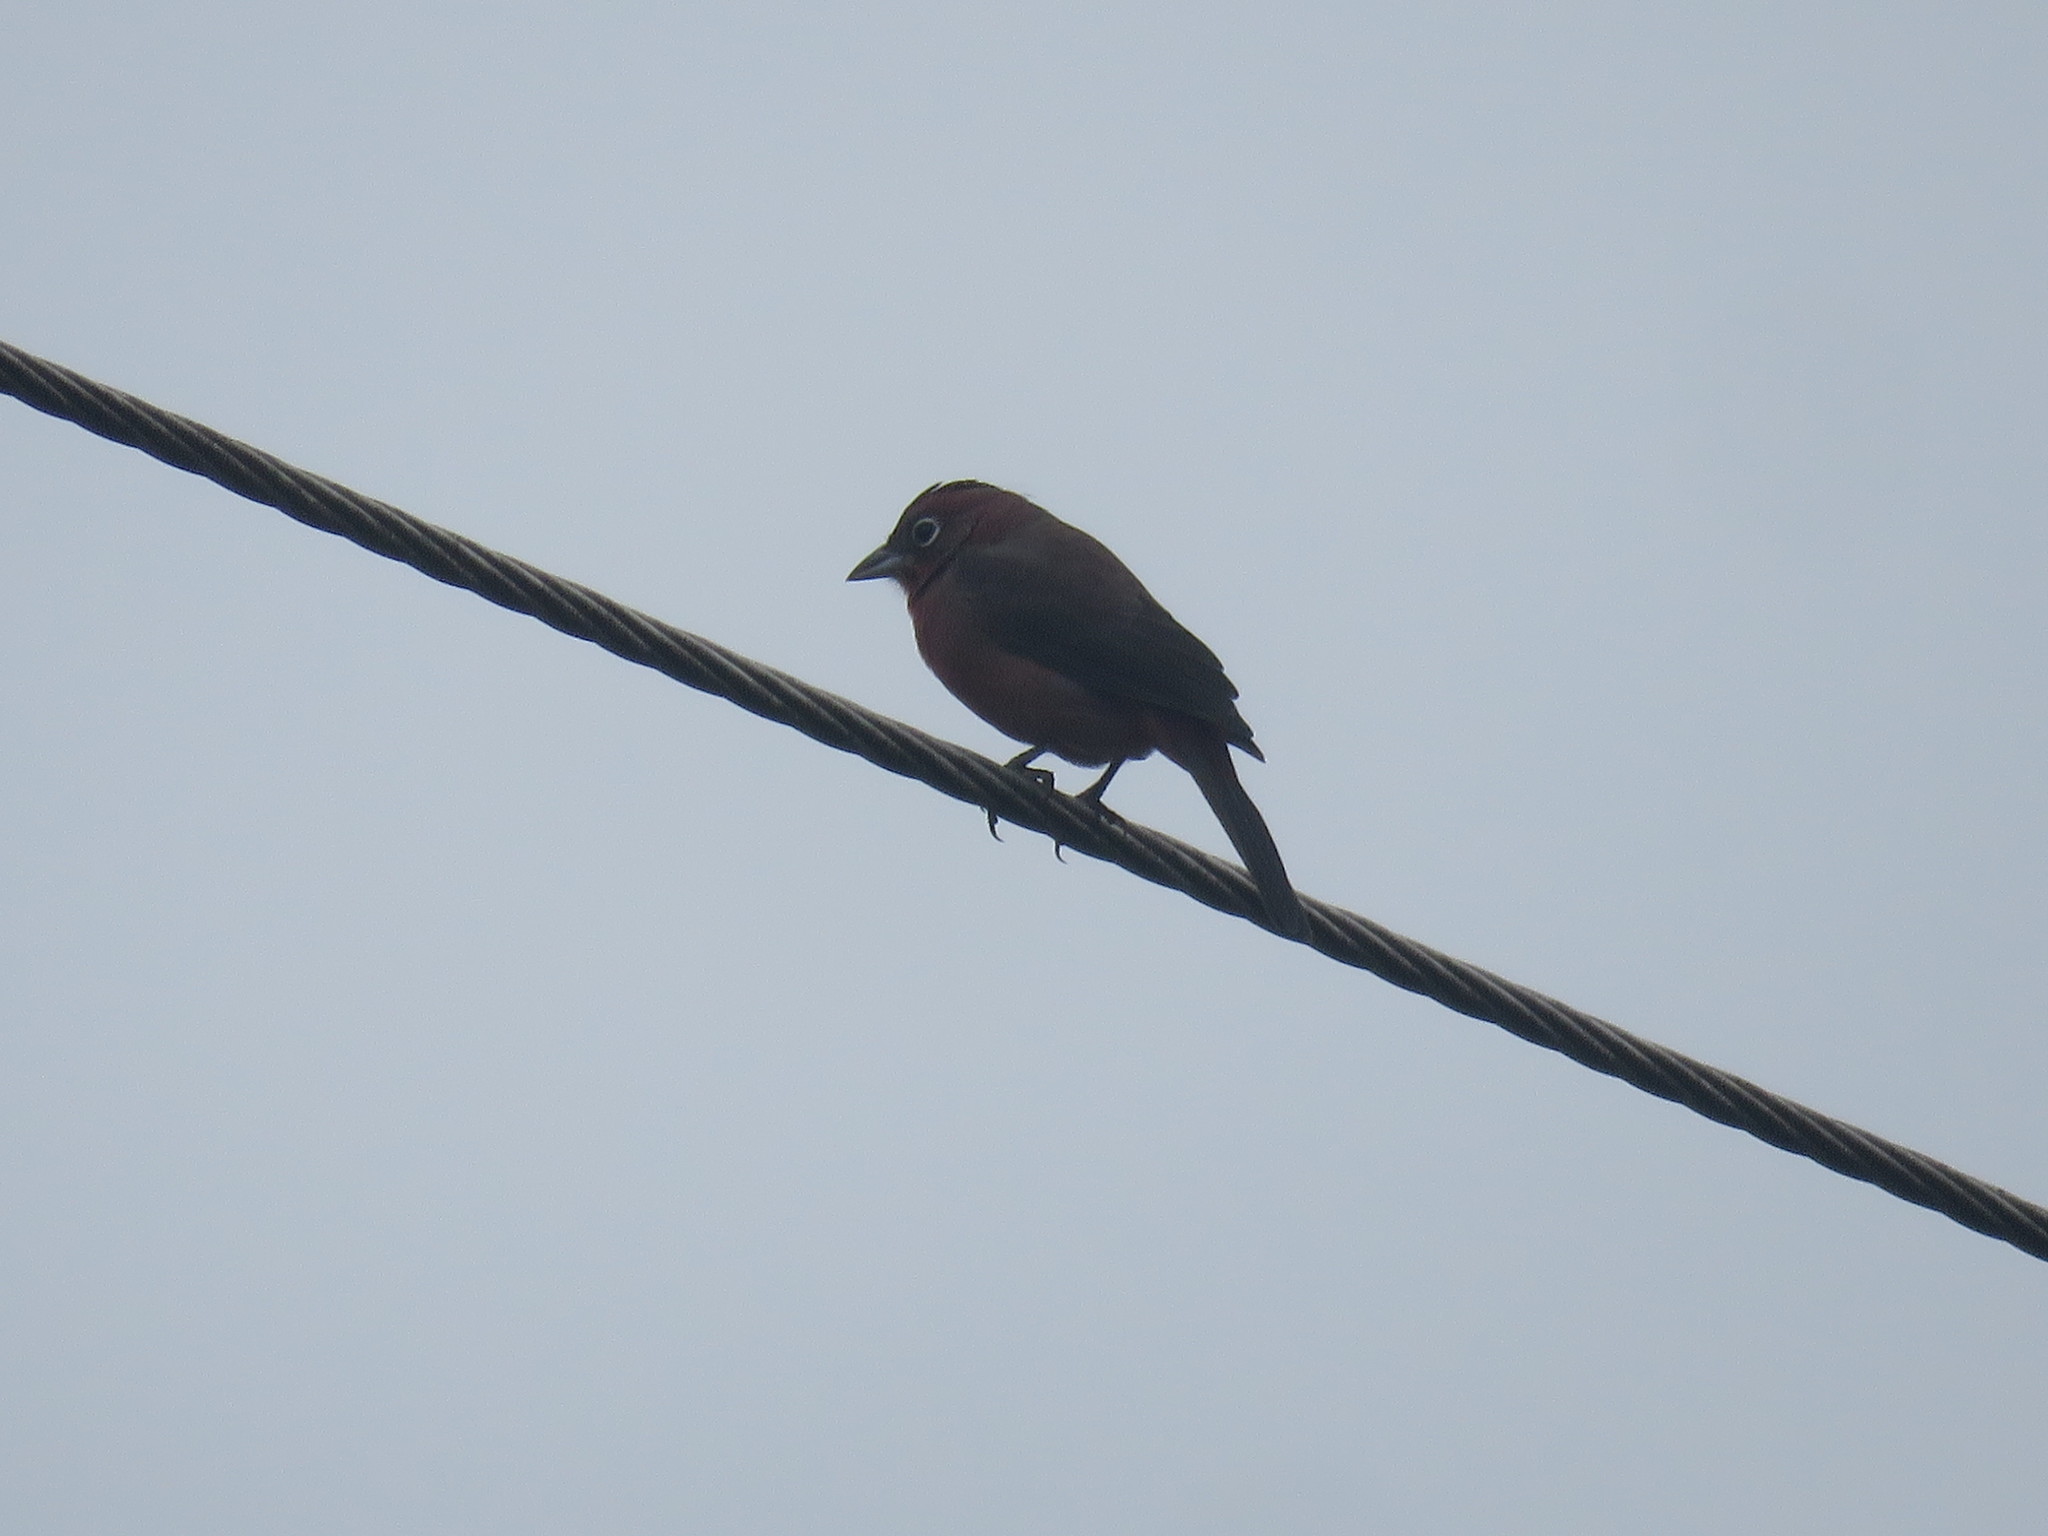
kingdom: Animalia
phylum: Chordata
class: Aves
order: Passeriformes
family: Thraupidae
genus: Coryphospingus
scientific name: Coryphospingus cucullatus
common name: Red pileated finch
